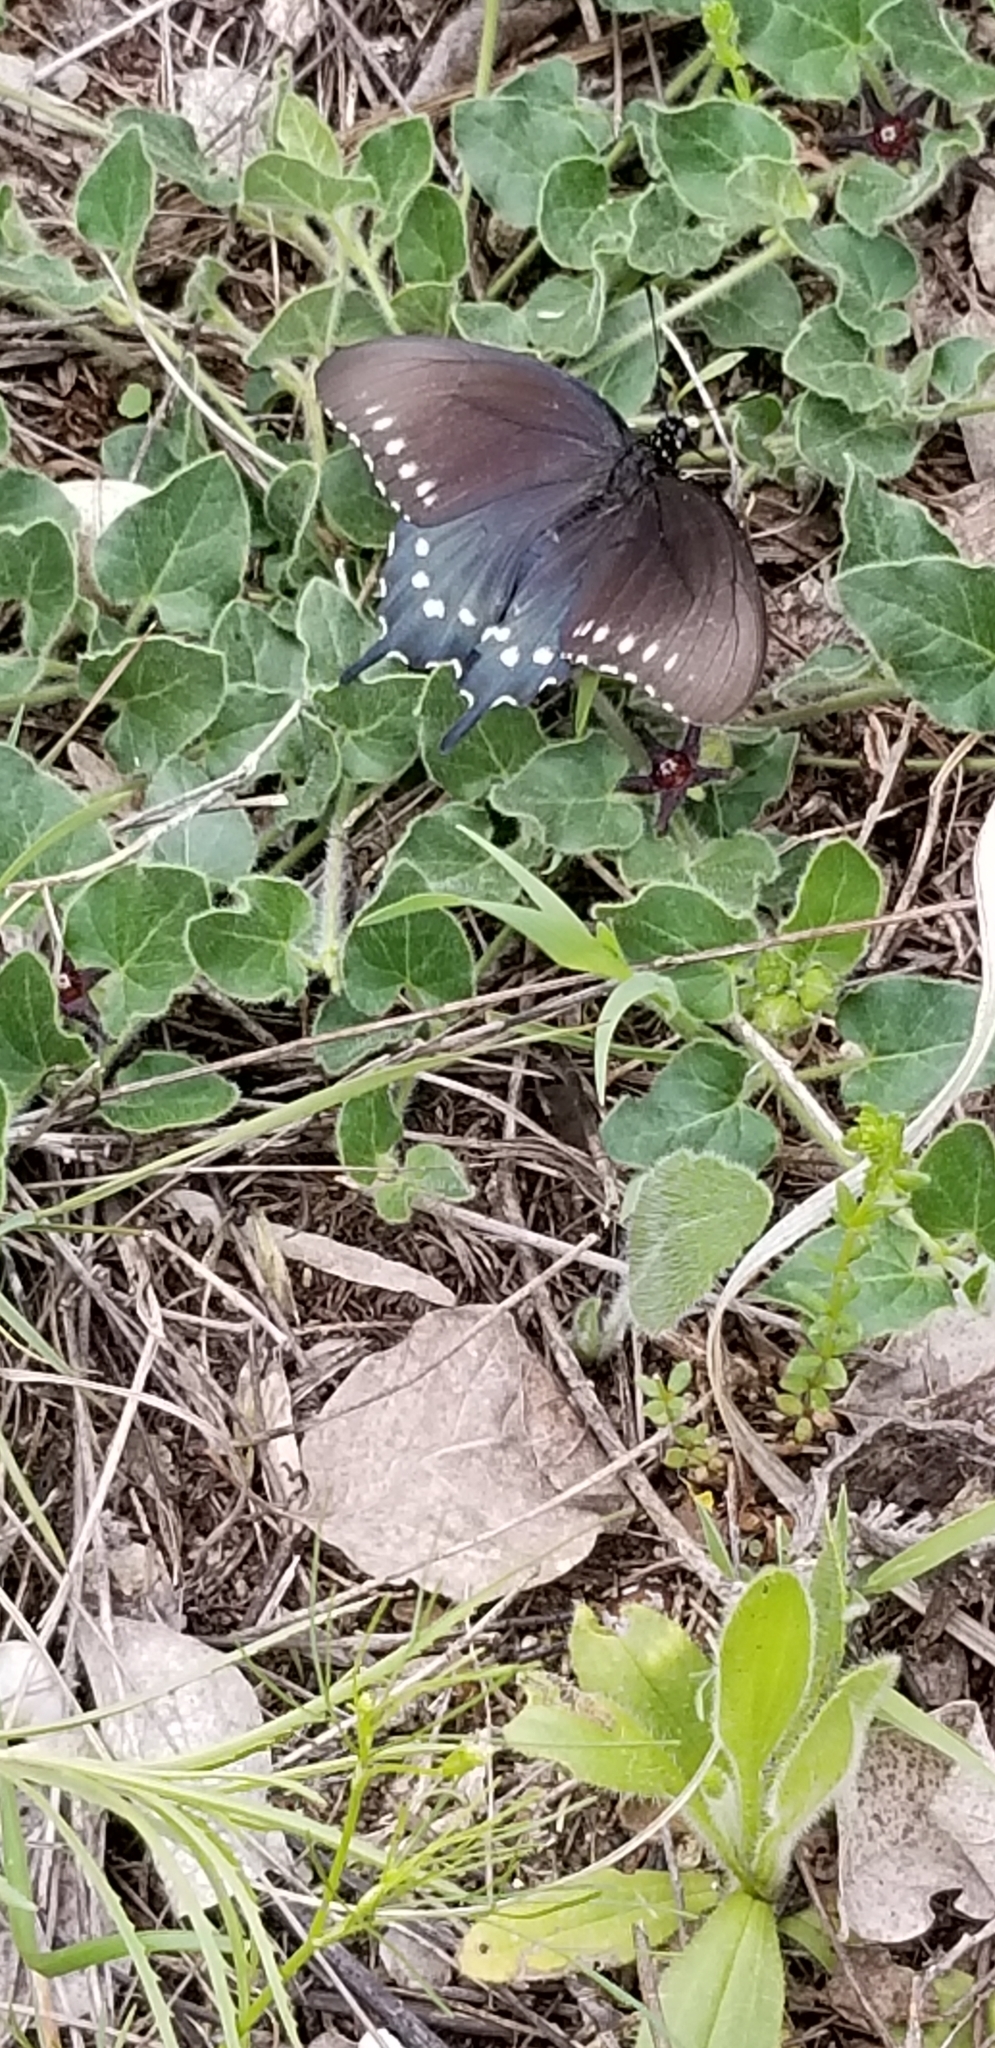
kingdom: Animalia
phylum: Arthropoda
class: Insecta
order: Lepidoptera
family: Papilionidae
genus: Battus
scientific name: Battus philenor
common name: Pipevine swallowtail
